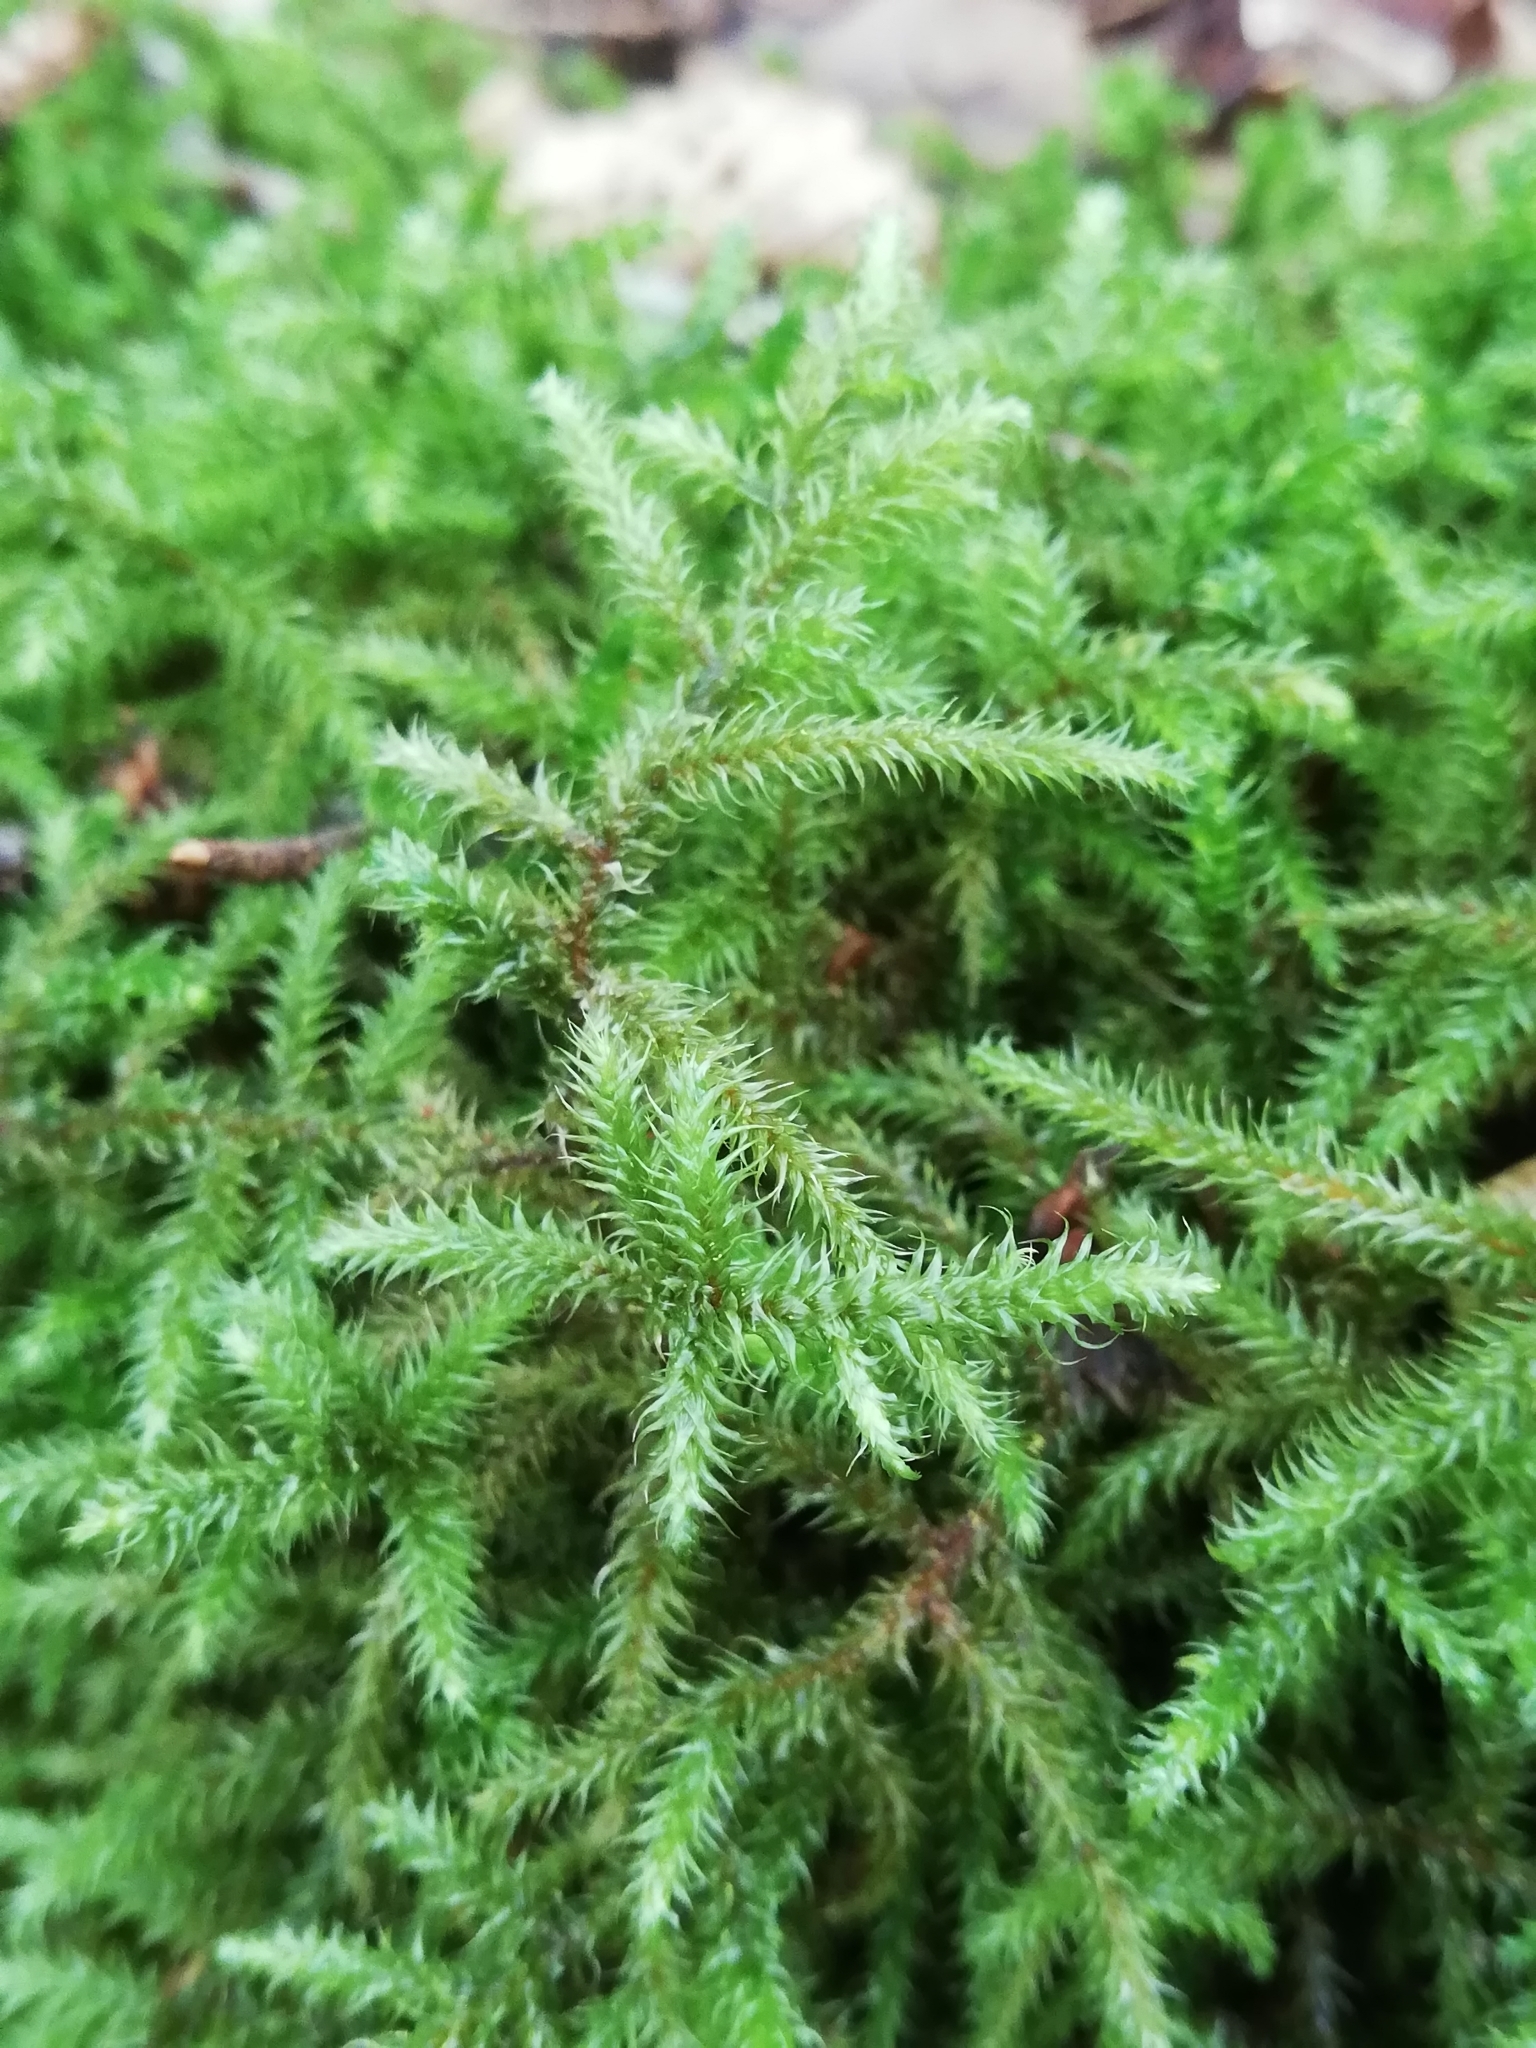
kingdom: Plantae
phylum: Bryophyta
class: Bryopsida
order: Hypnales
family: Hylocomiaceae
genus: Rhytidiadelphus
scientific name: Rhytidiadelphus loreus
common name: Lanky moss
